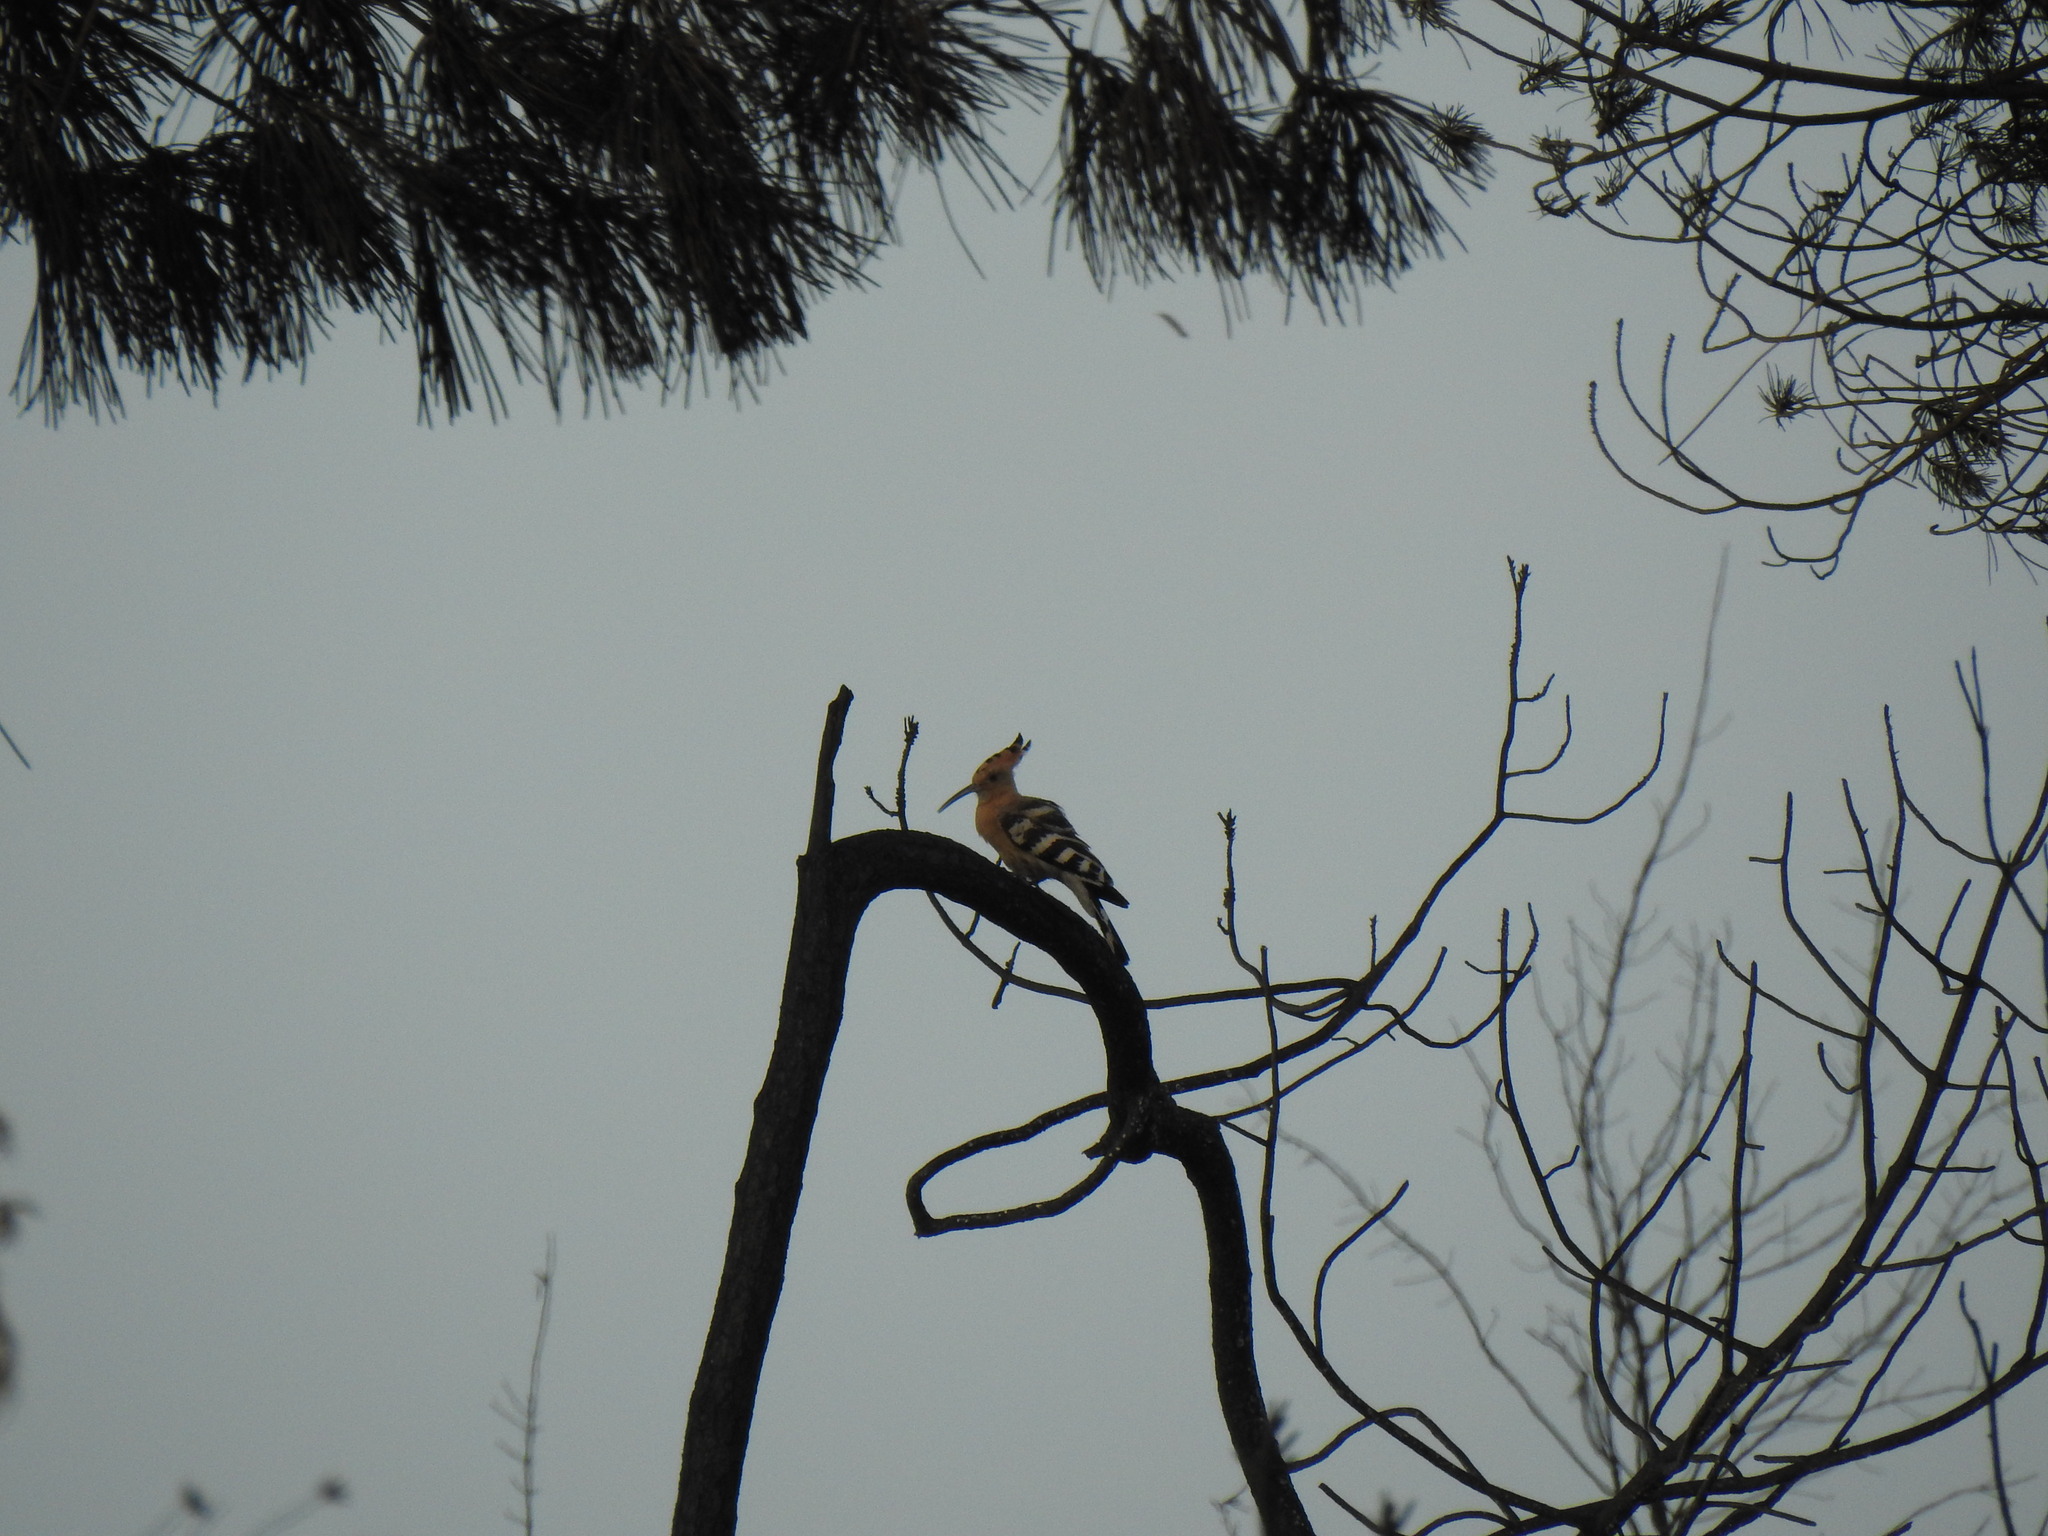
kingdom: Animalia
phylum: Chordata
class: Aves
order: Bucerotiformes
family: Upupidae
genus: Upupa
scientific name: Upupa epops
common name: Eurasian hoopoe
